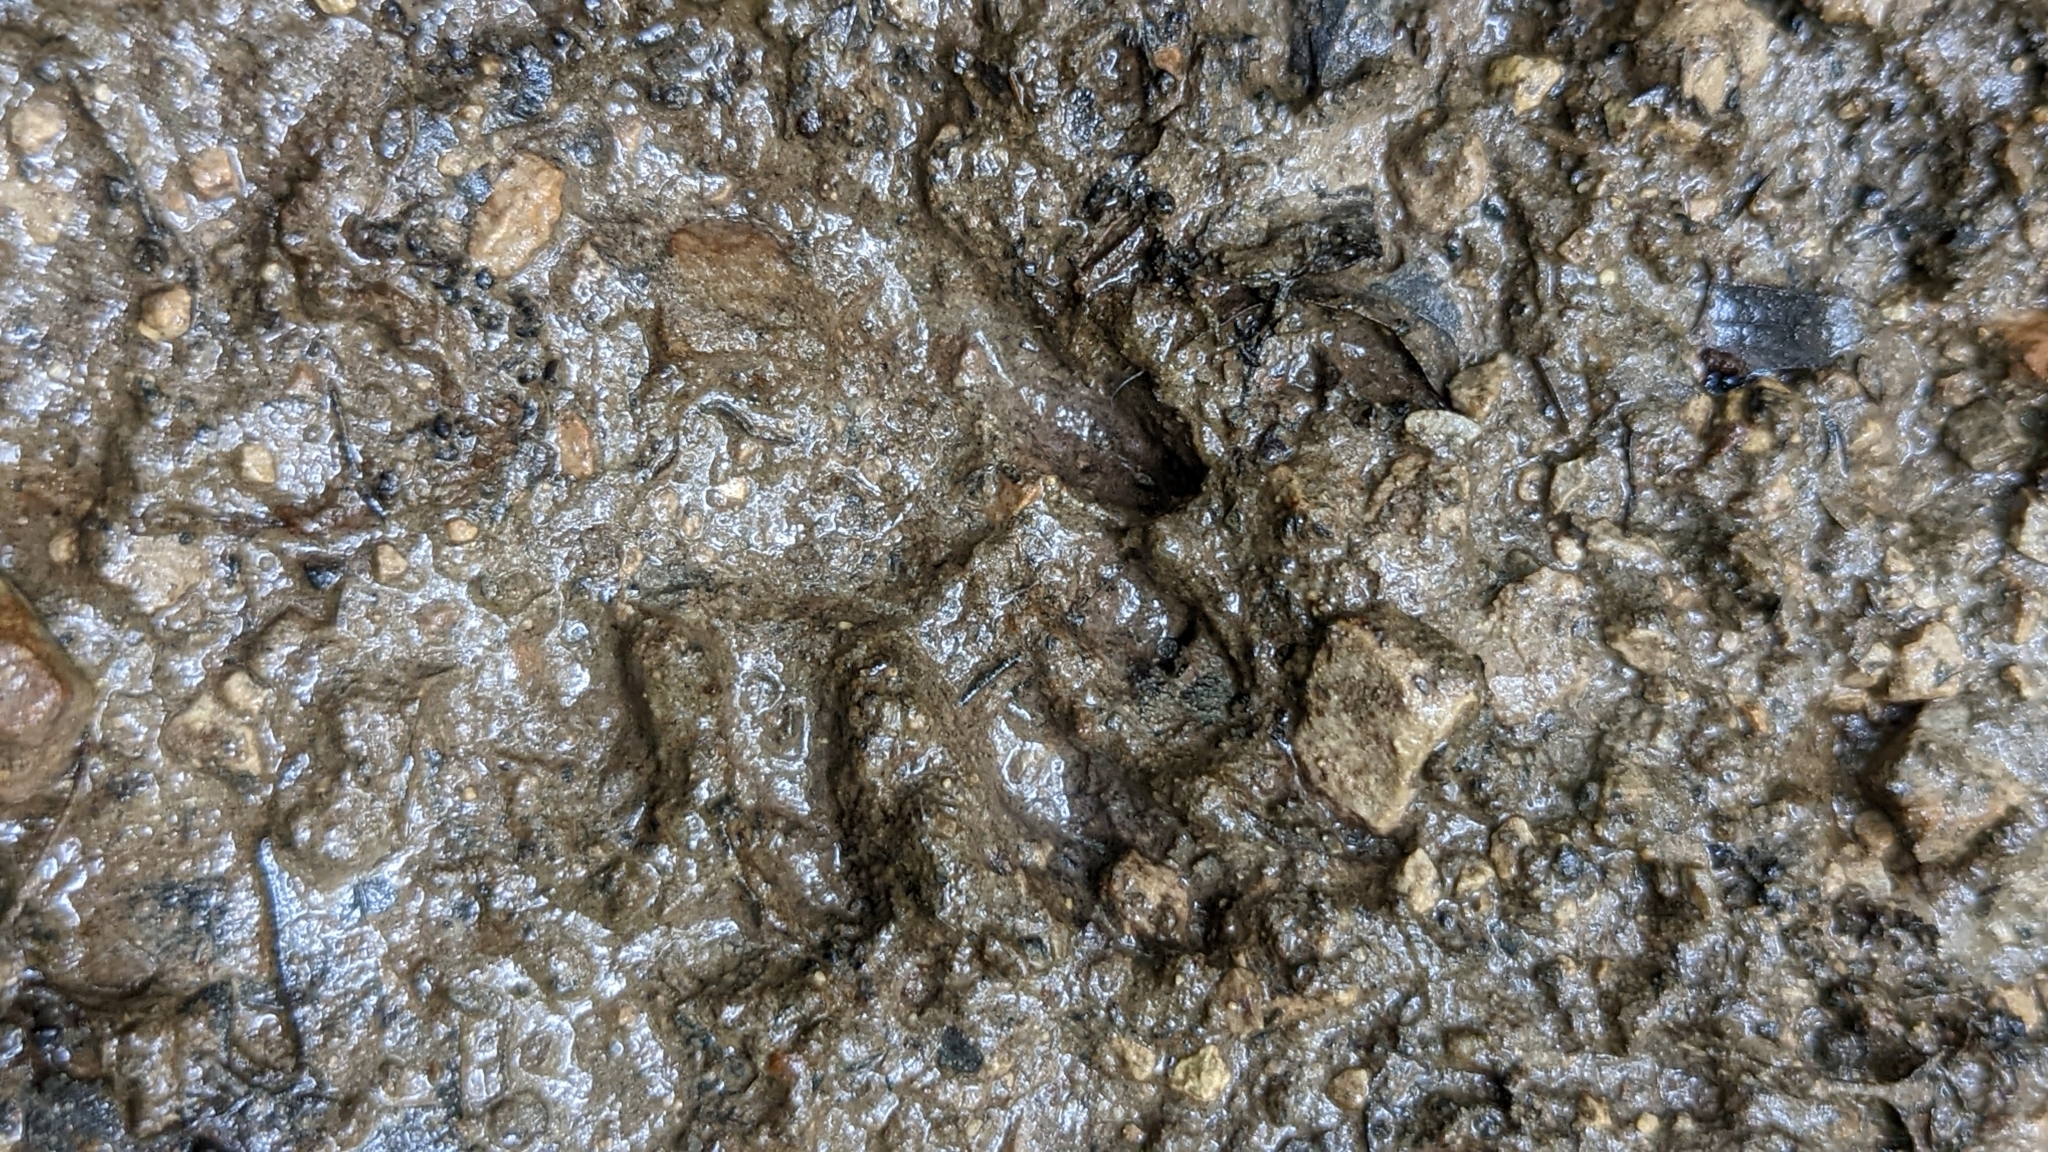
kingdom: Animalia
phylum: Chordata
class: Mammalia
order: Carnivora
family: Procyonidae
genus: Procyon
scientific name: Procyon lotor
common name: Raccoon
